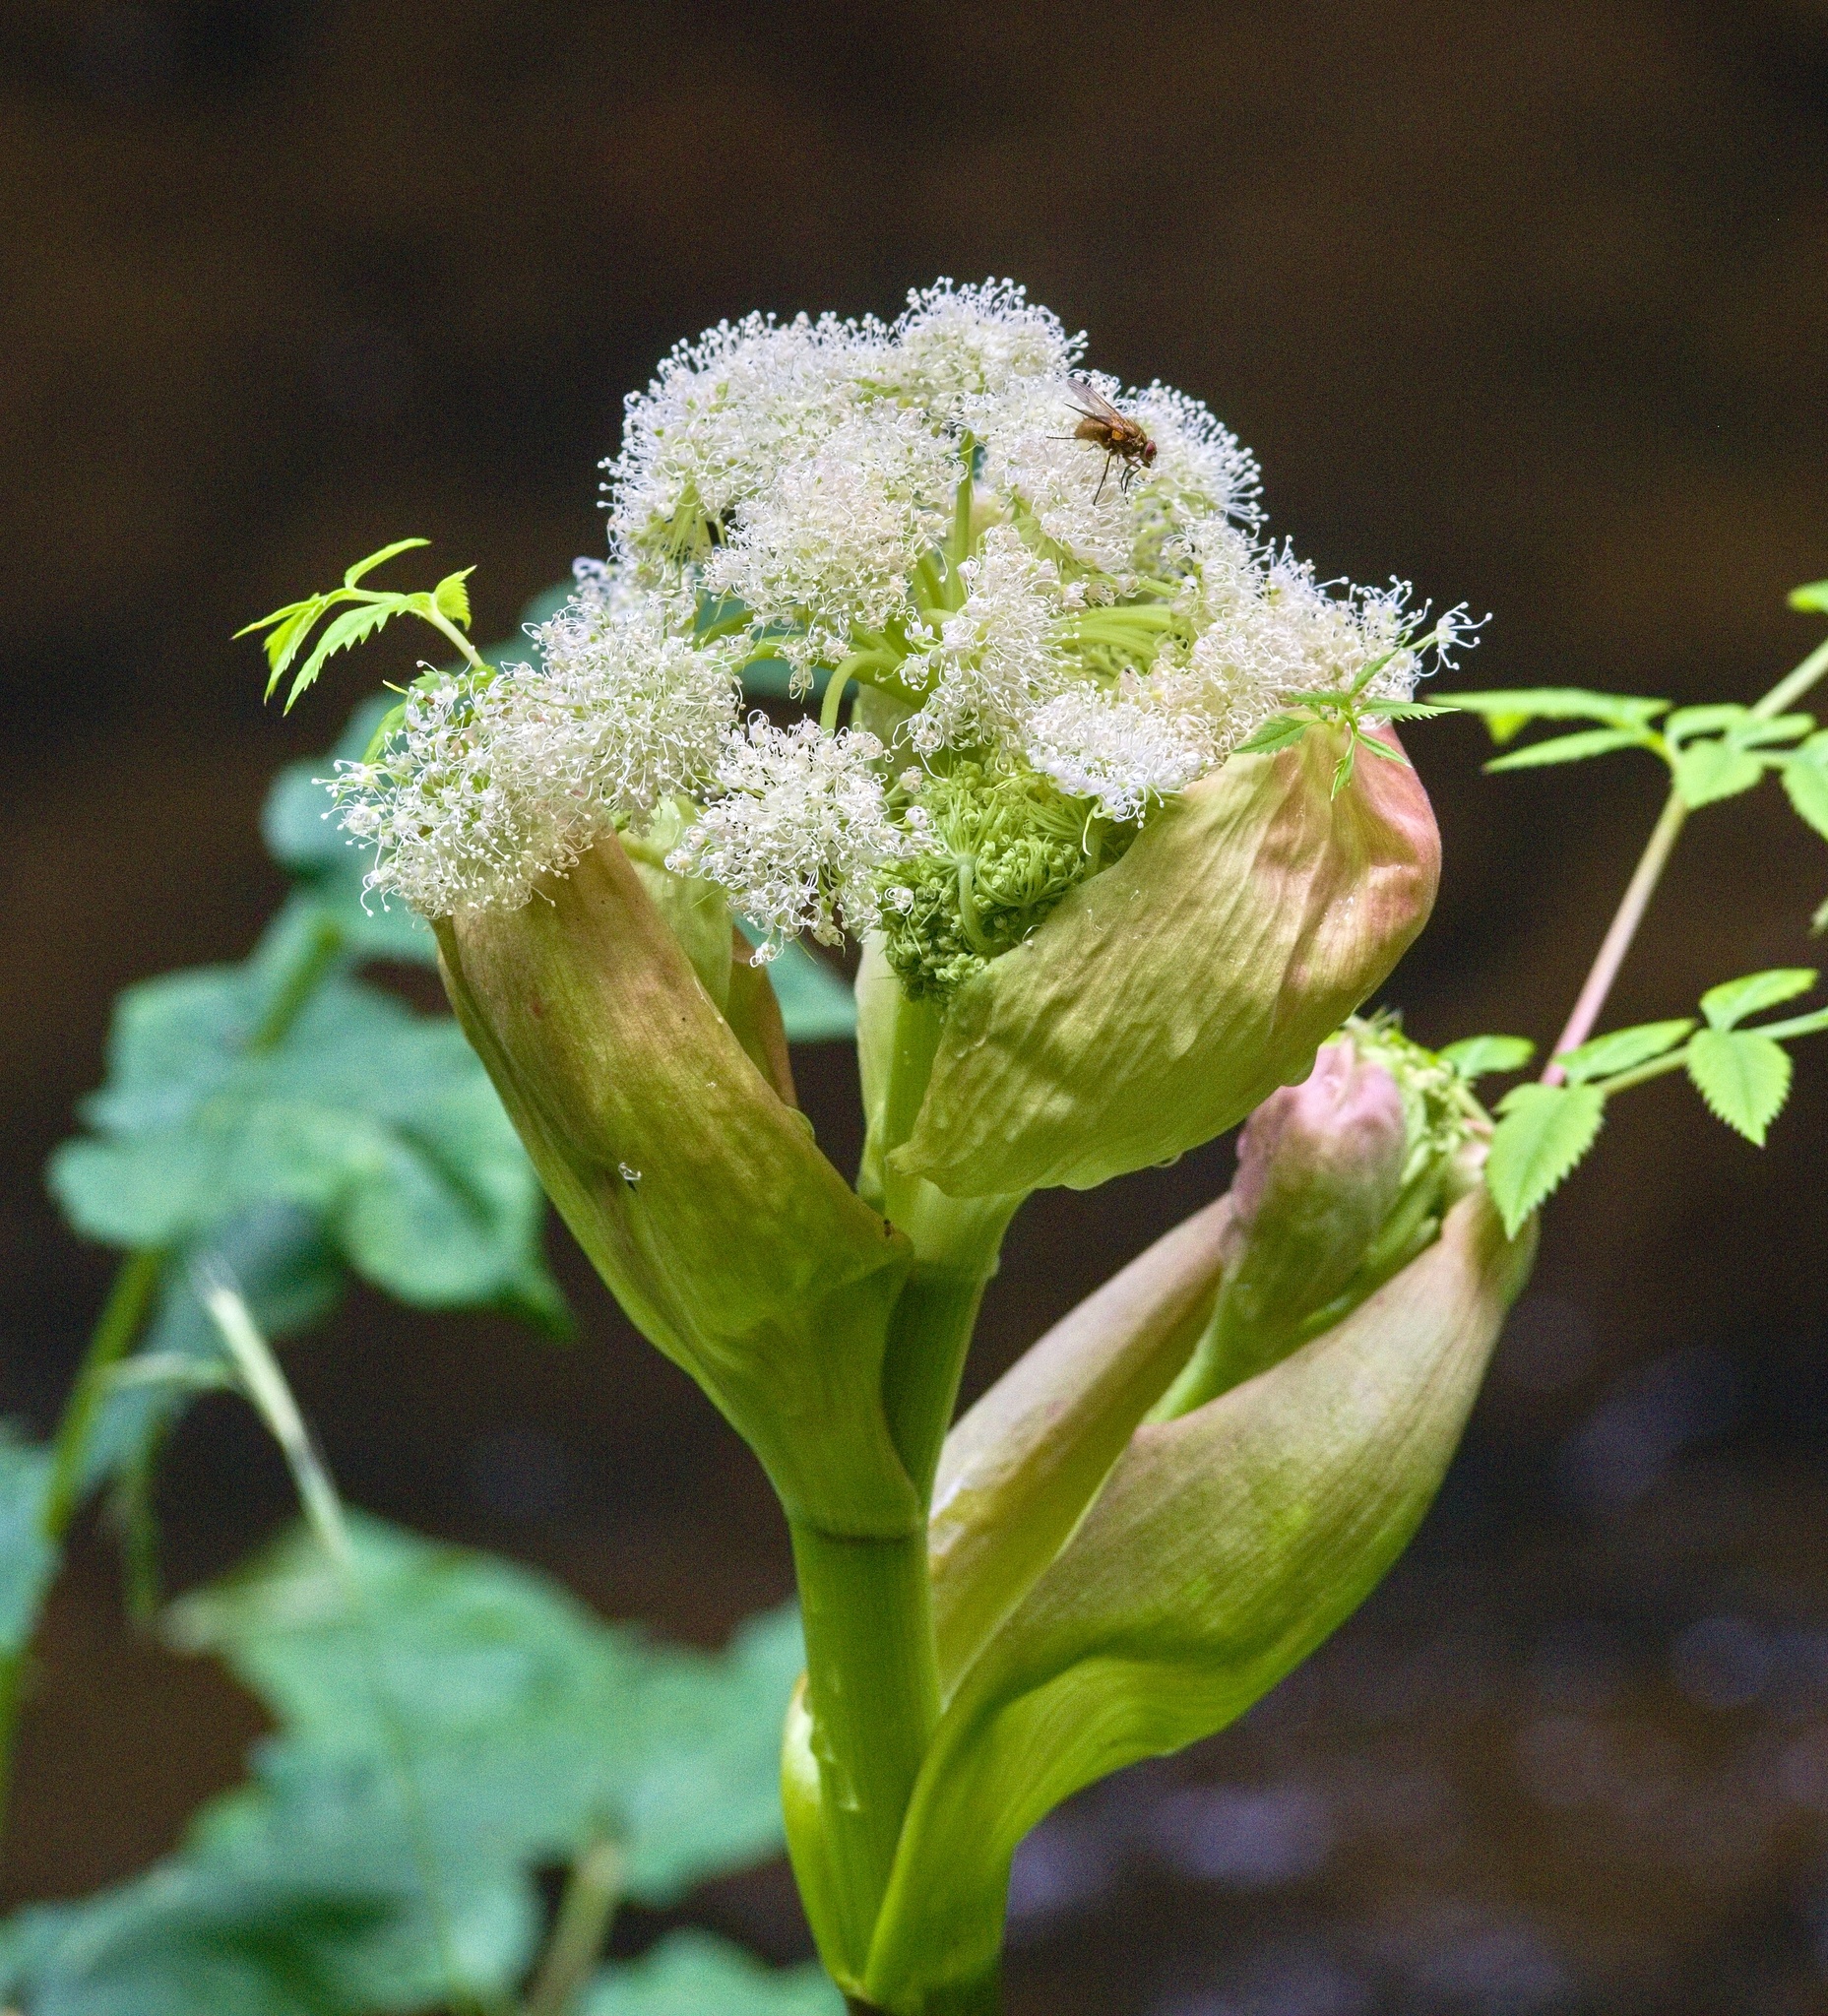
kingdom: Plantae
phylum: Tracheophyta
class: Magnoliopsida
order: Apiales
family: Apiaceae
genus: Angelica
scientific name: Angelica sylvestris
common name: Wild angelica
